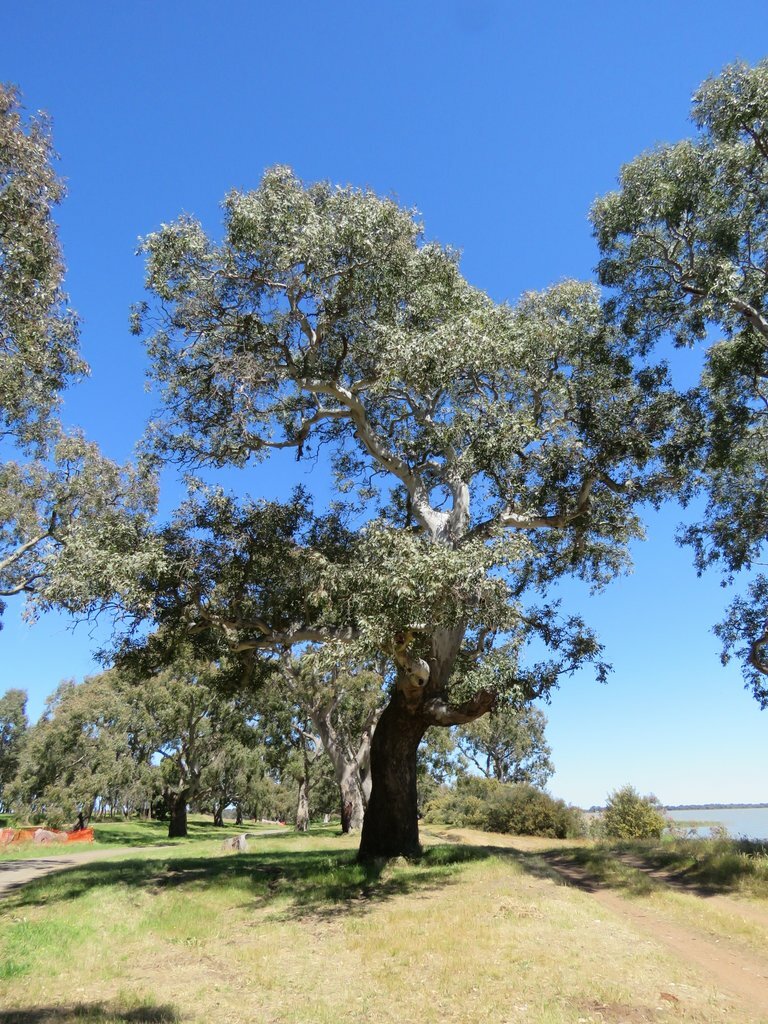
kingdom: Plantae
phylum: Tracheophyta
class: Magnoliopsida
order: Myrtales
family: Myrtaceae
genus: Eucalyptus
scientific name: Eucalyptus camaldulensis
